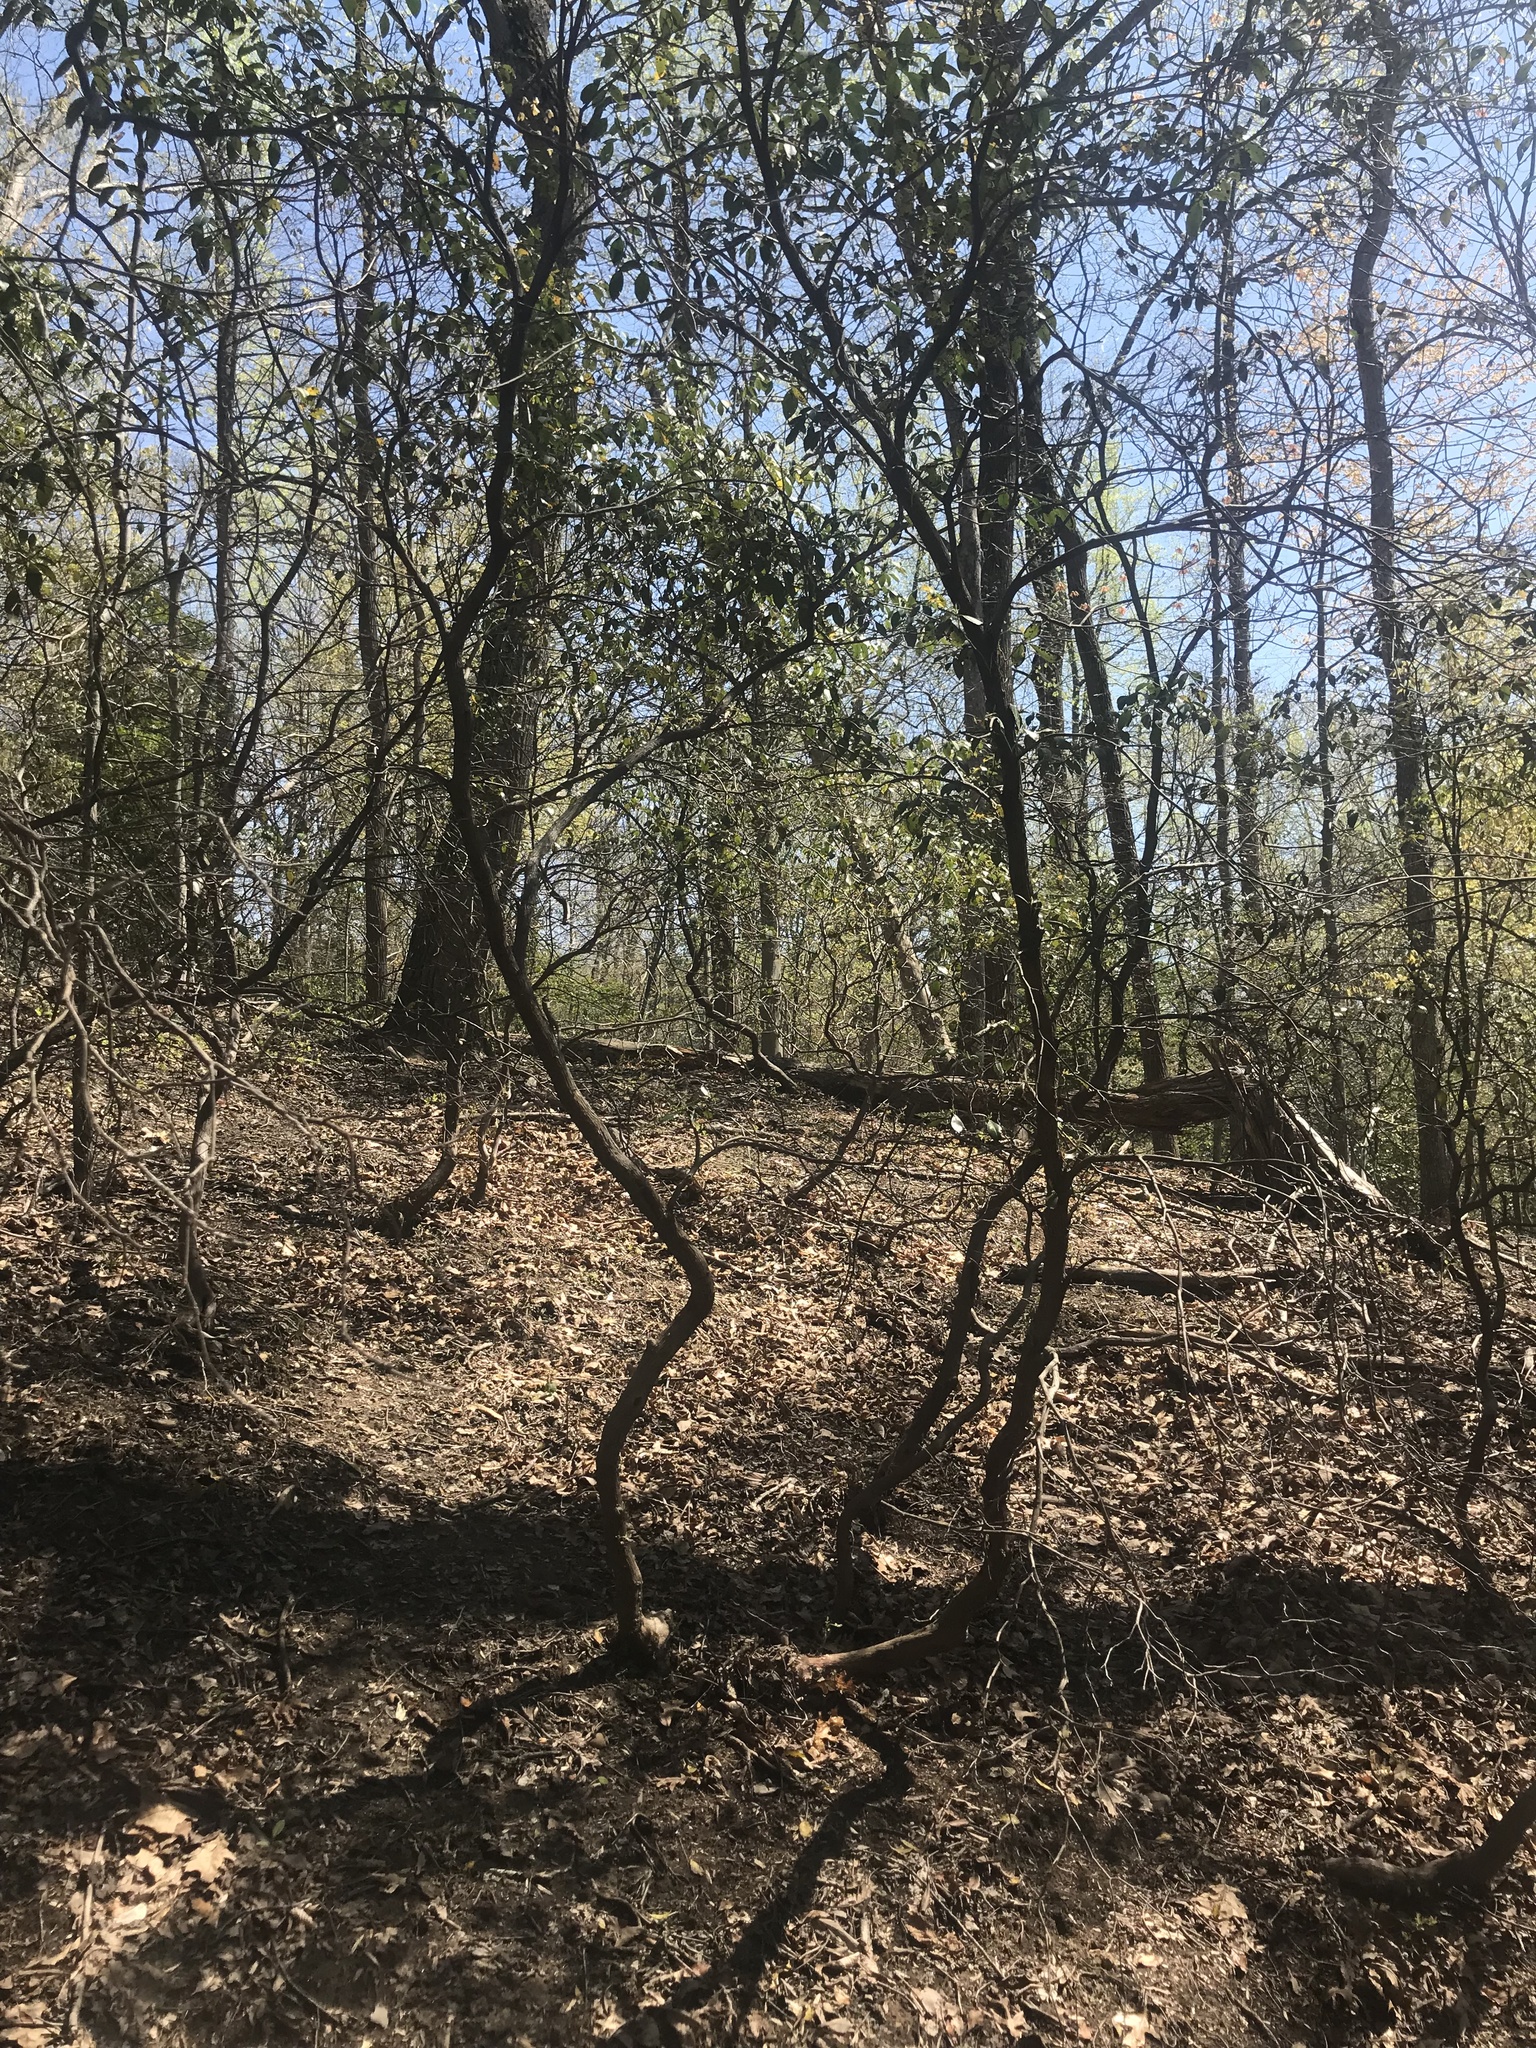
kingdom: Plantae
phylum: Tracheophyta
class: Magnoliopsida
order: Ericales
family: Ericaceae
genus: Kalmia
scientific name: Kalmia latifolia
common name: Mountain-laurel
